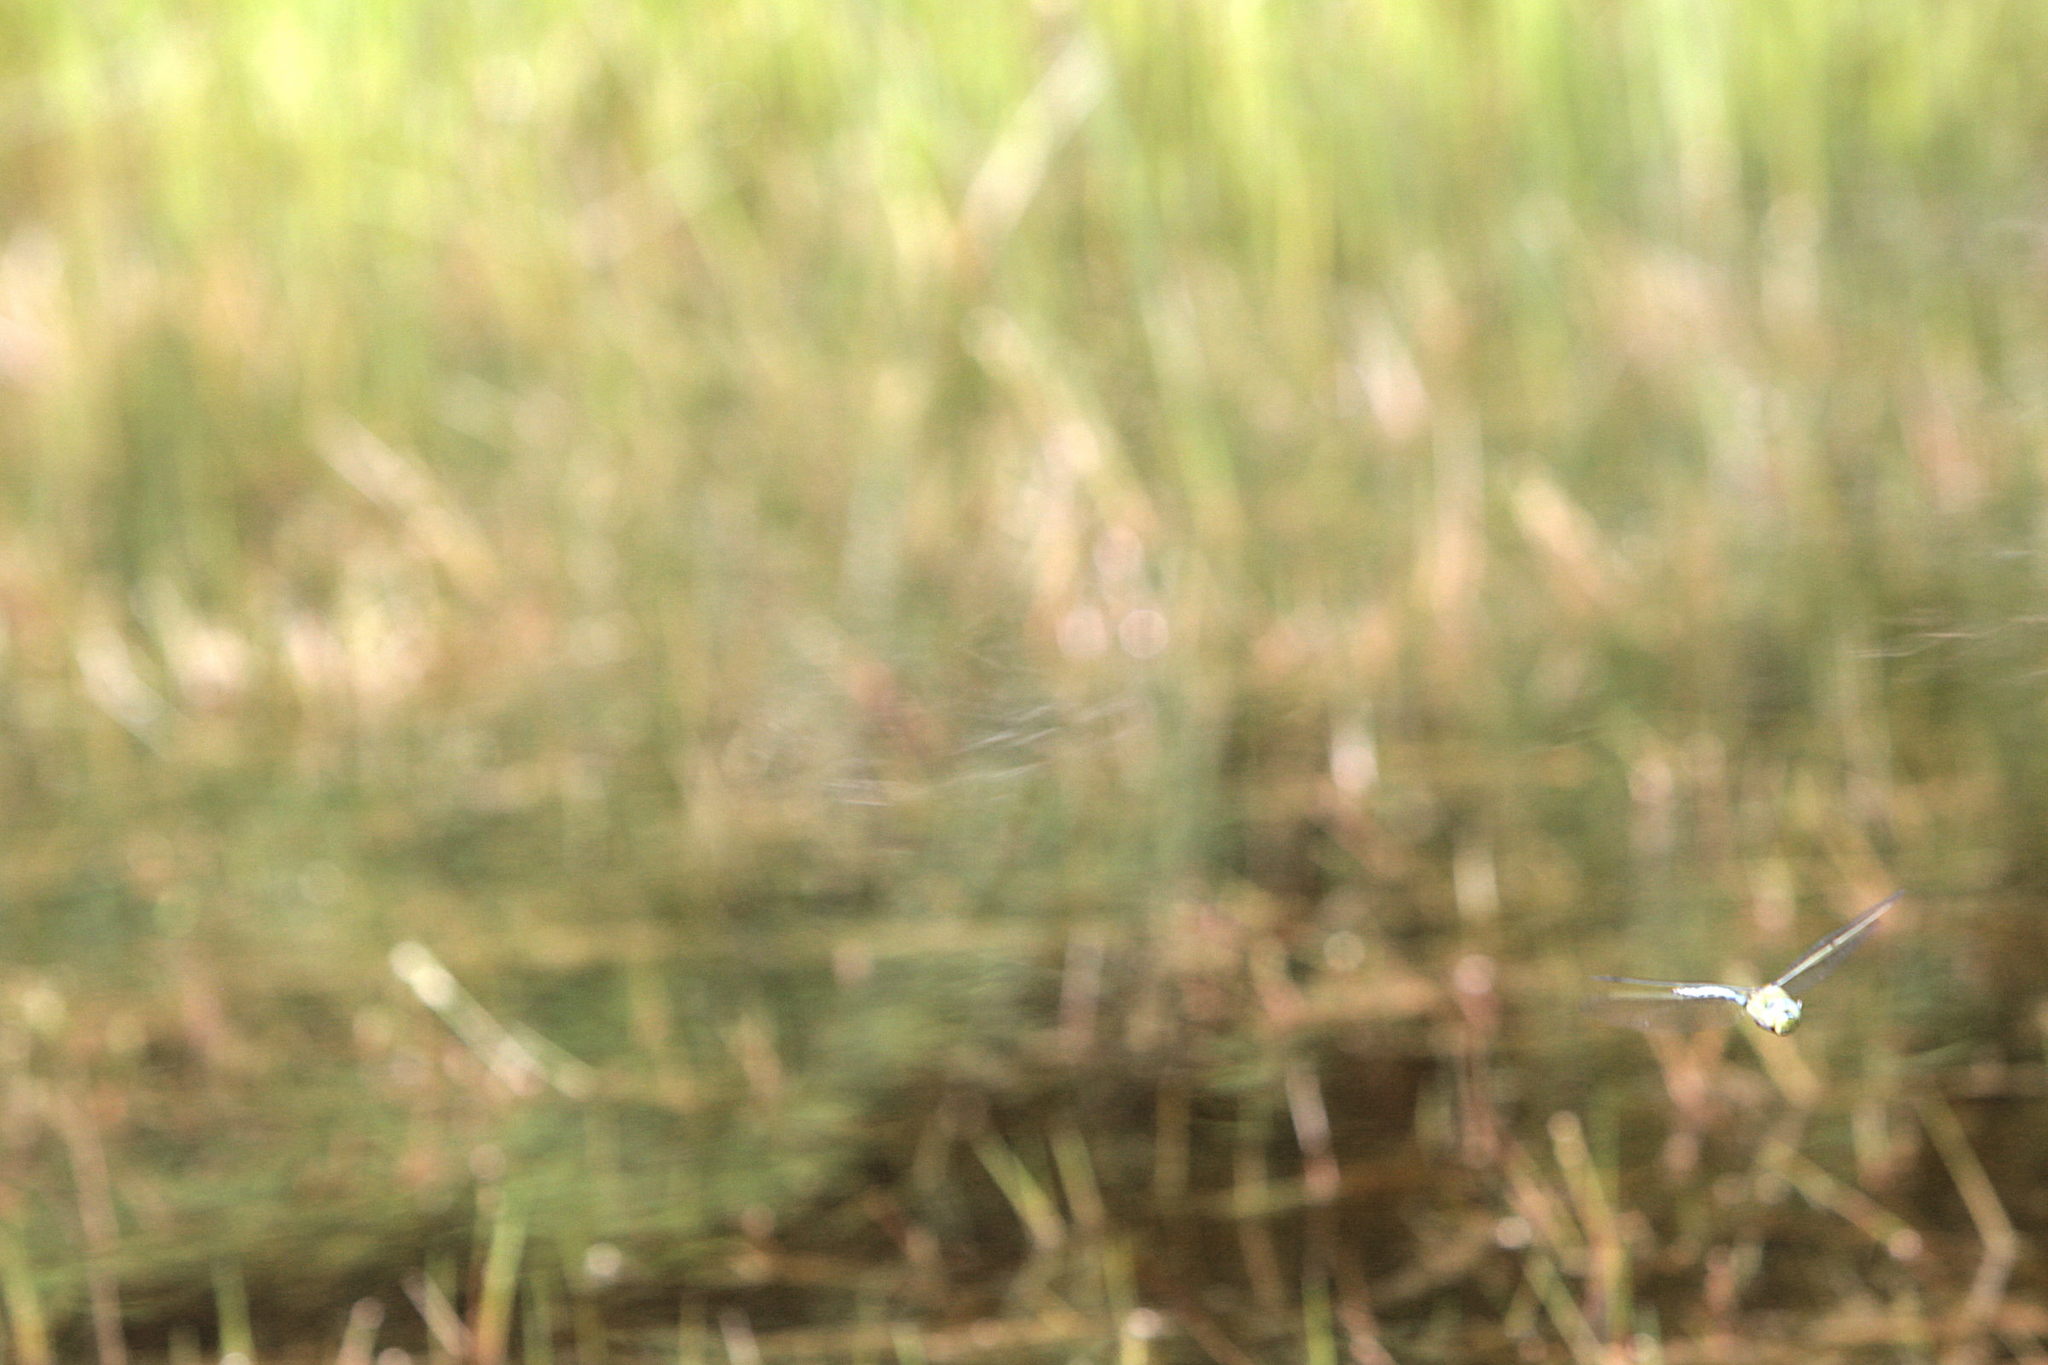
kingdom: Animalia
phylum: Arthropoda
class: Insecta
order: Odonata
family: Aeshnidae
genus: Anax
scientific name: Anax imperator
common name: Emperor dragonfly
